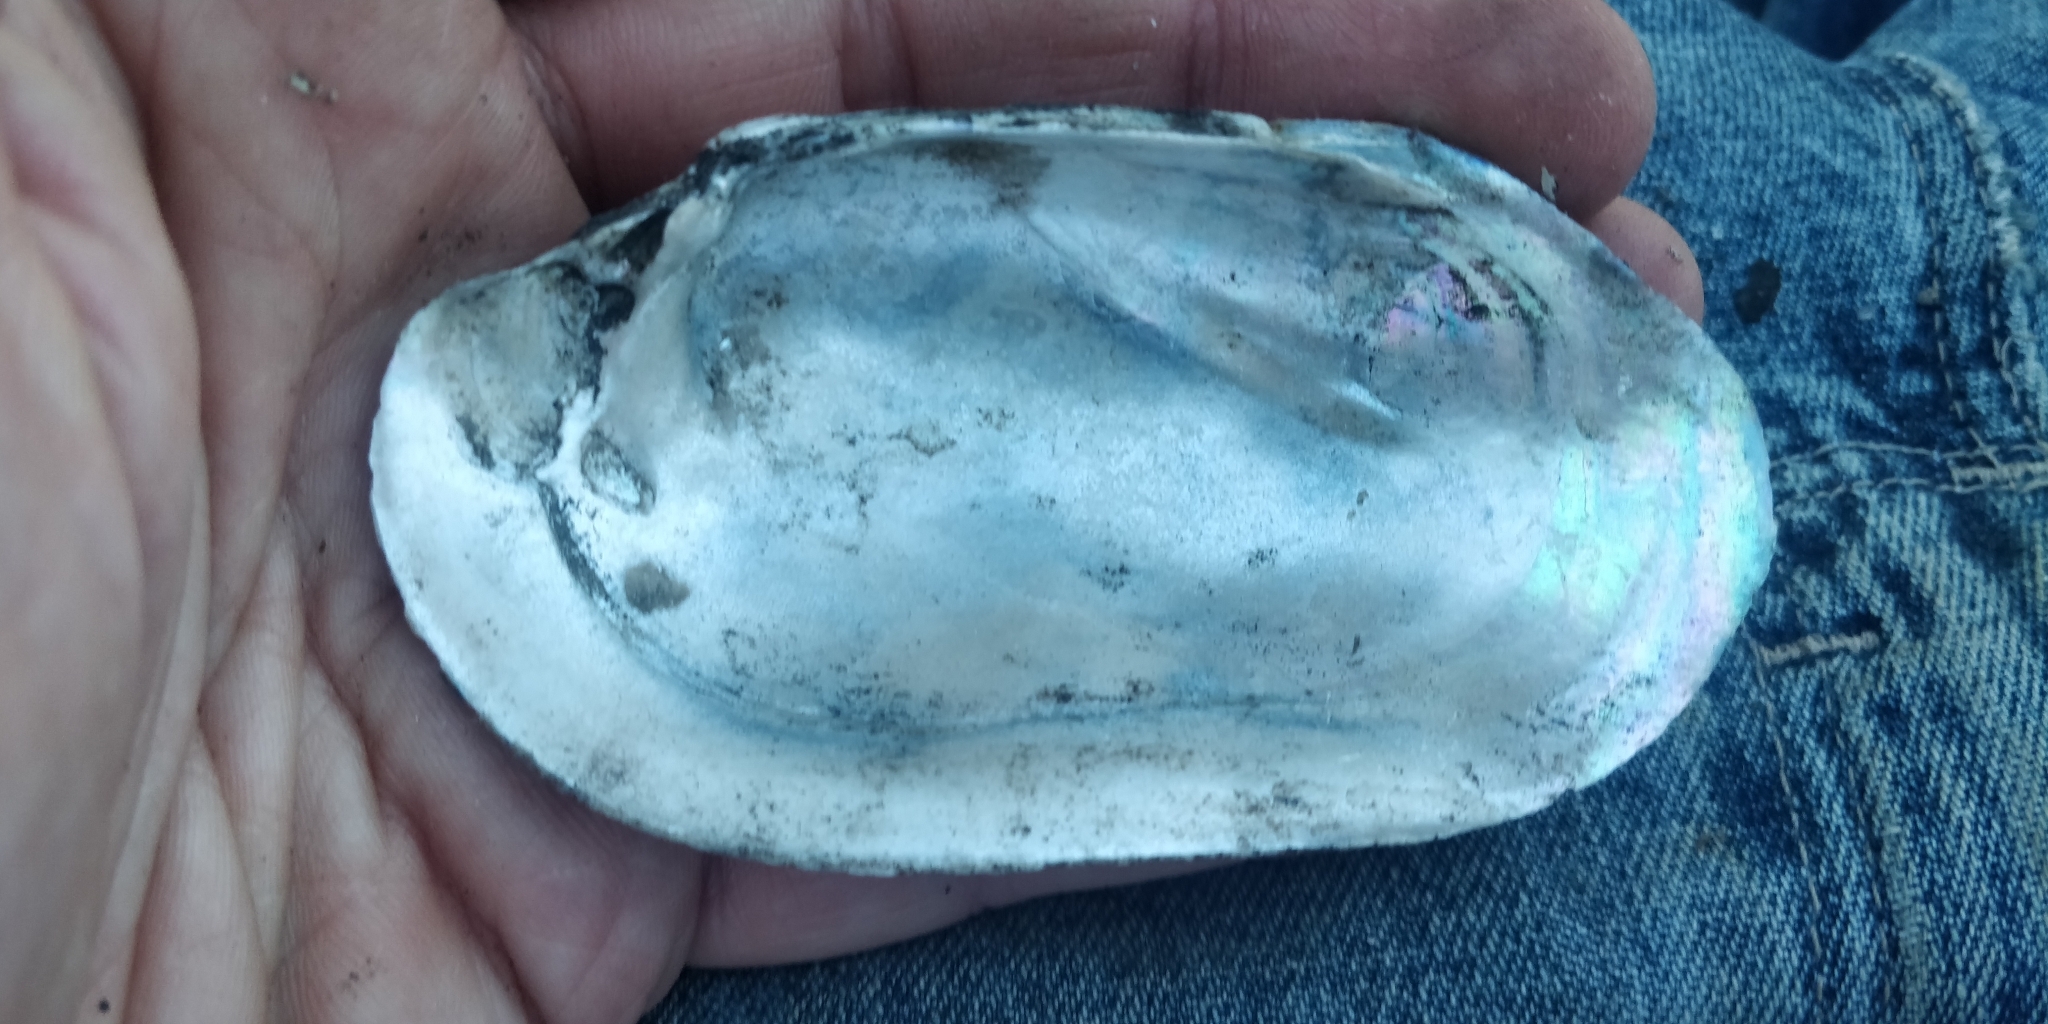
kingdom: Animalia
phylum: Mollusca
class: Bivalvia
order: Unionida
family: Unionidae
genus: Lampsilis
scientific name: Lampsilis siliquoidea
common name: Fatmucket
